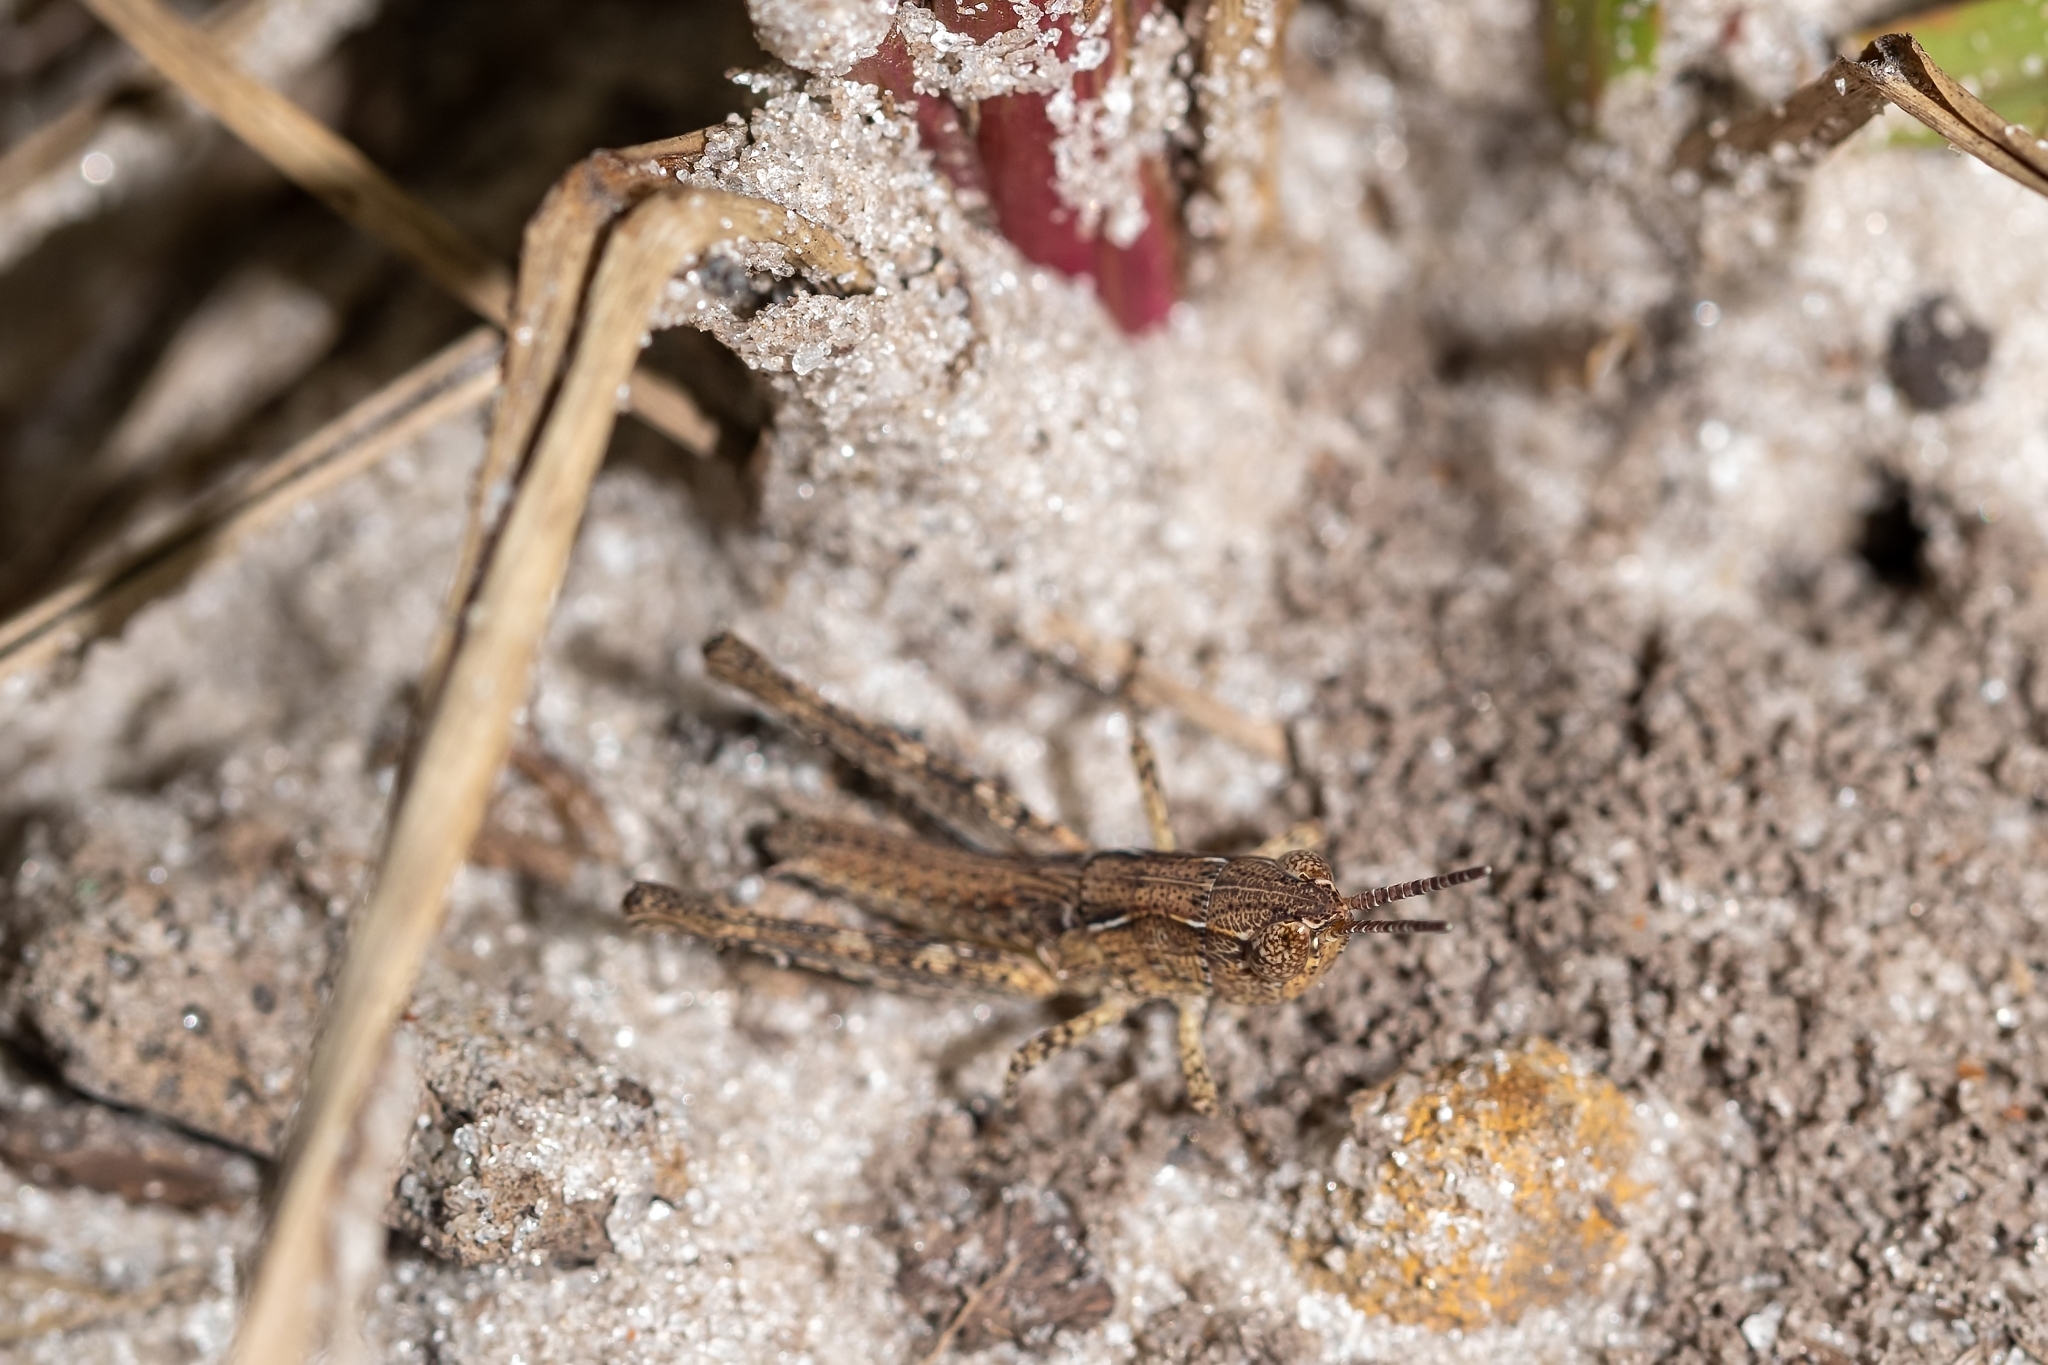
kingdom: Animalia
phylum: Arthropoda
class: Insecta
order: Orthoptera
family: Acrididae
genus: Orphulella
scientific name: Orphulella pelidna
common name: Spotted-wing grasshopper
